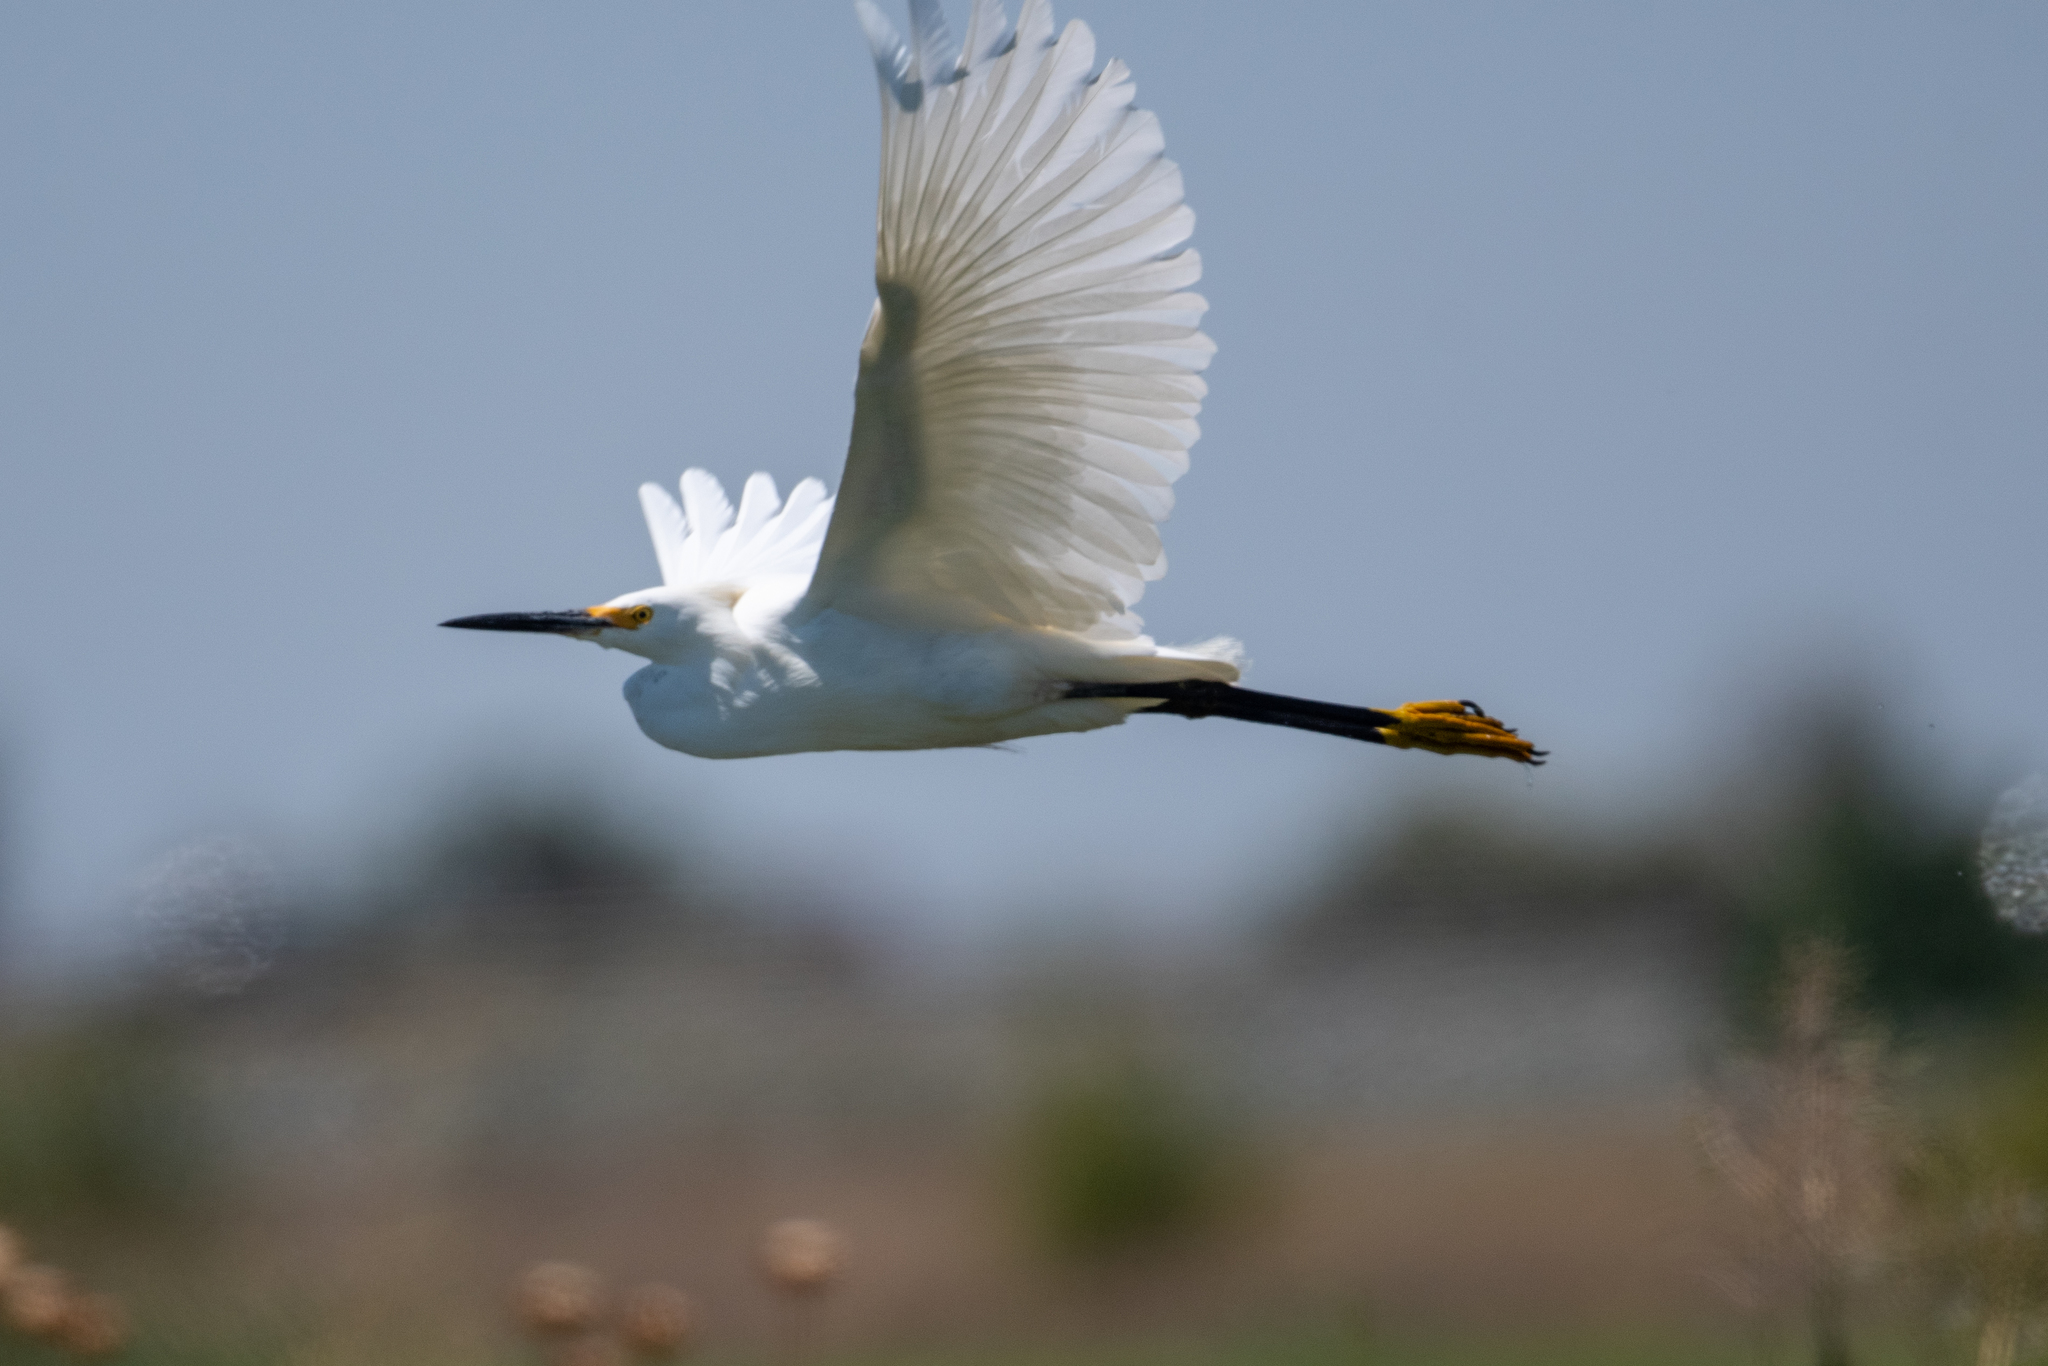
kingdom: Animalia
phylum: Chordata
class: Aves
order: Pelecaniformes
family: Ardeidae
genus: Egretta
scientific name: Egretta thula
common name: Snowy egret
